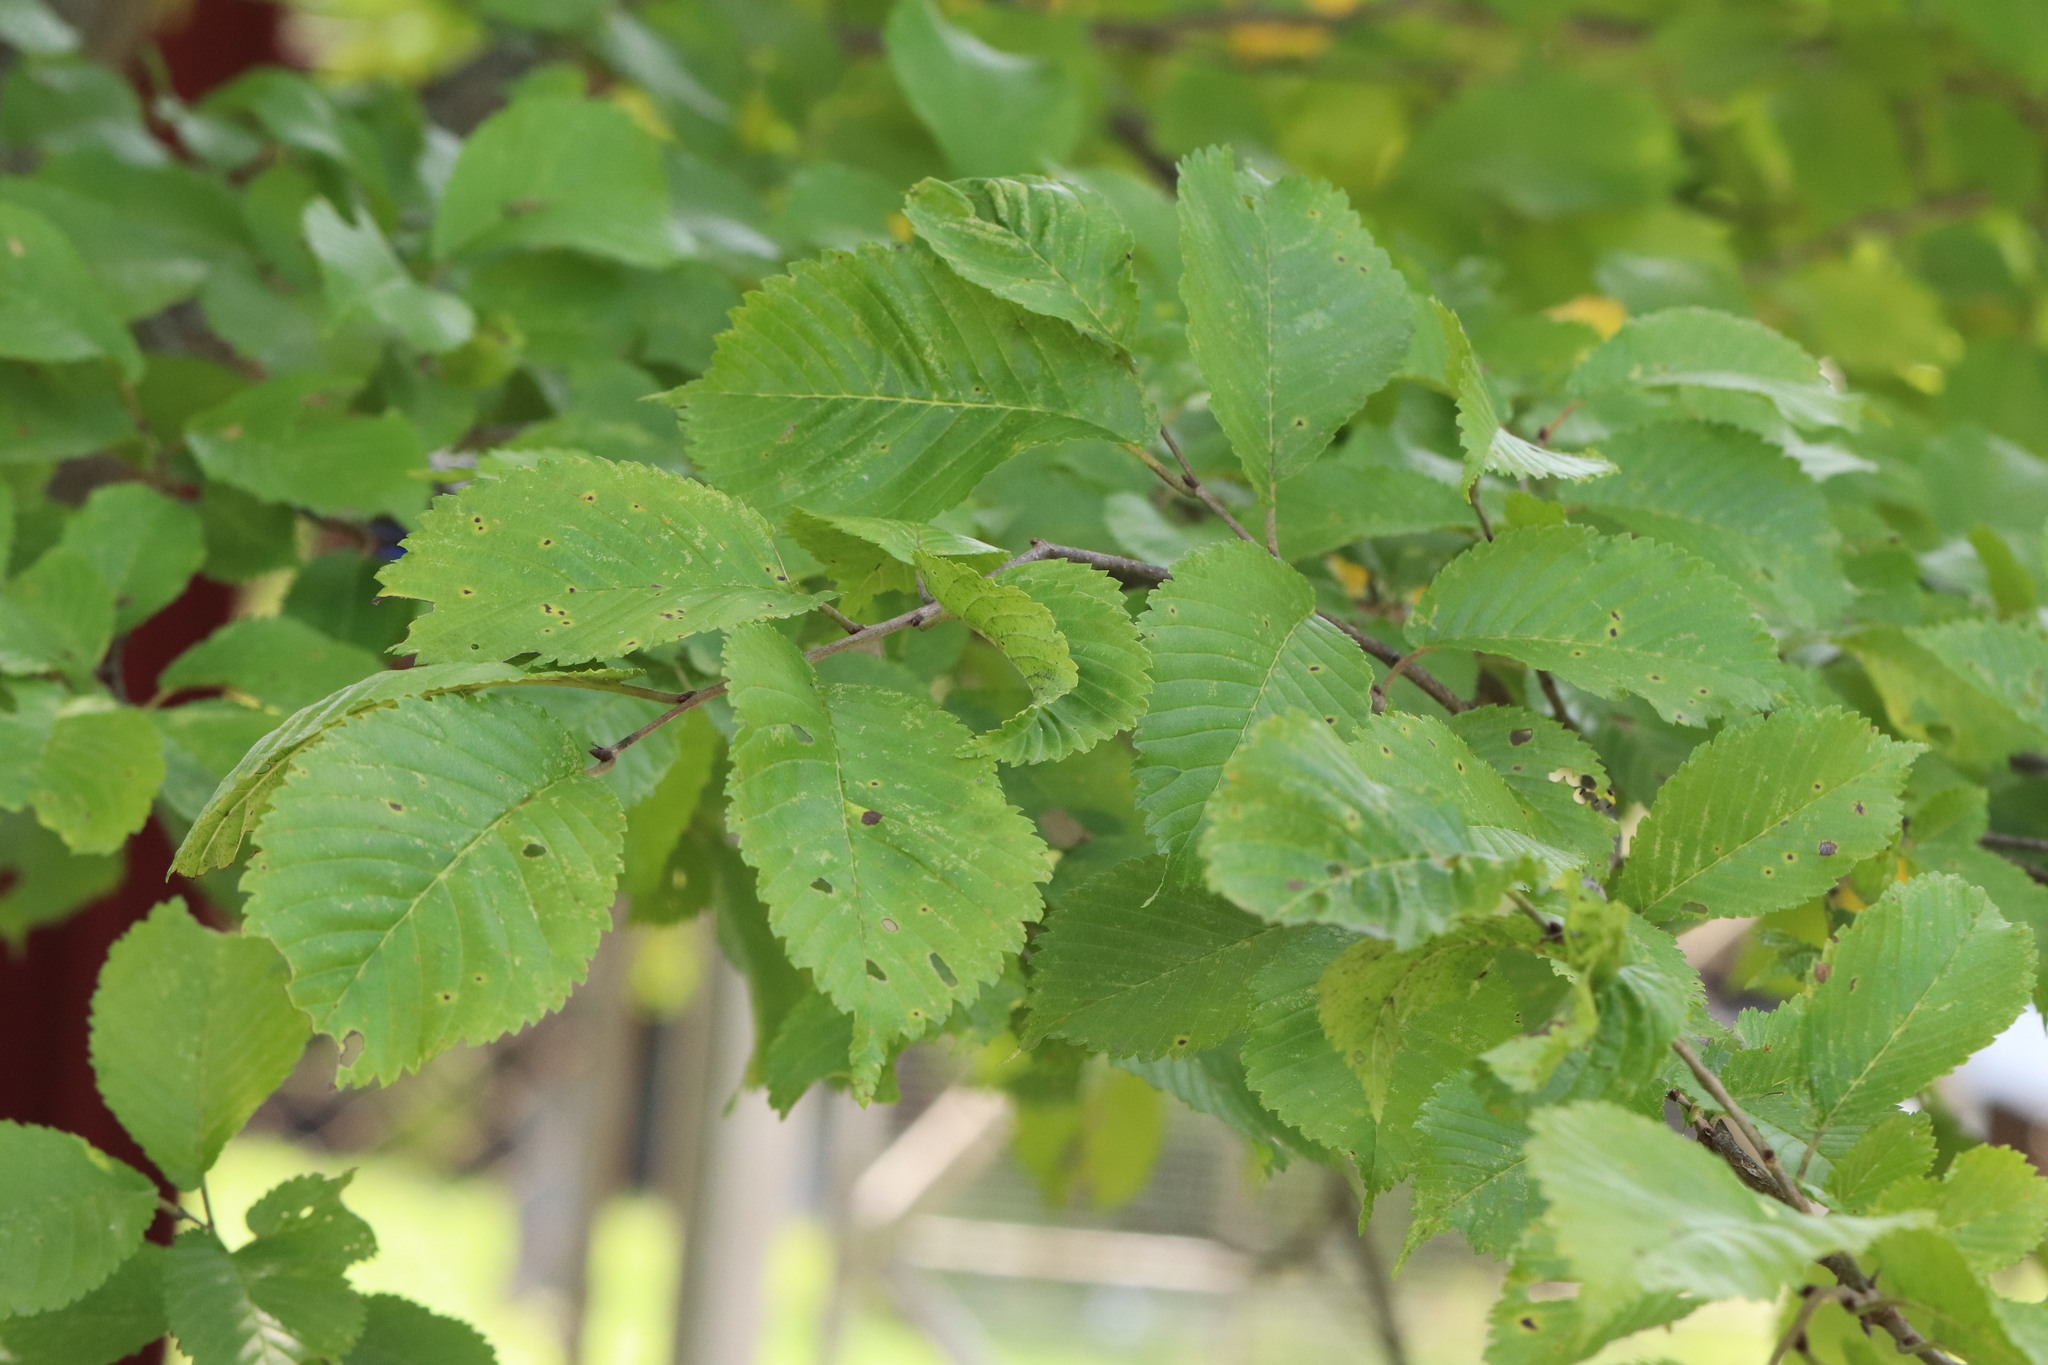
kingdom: Plantae
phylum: Tracheophyta
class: Magnoliopsida
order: Rosales
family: Ulmaceae
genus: Ulmus
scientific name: Ulmus davidiana
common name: Japanese elm
